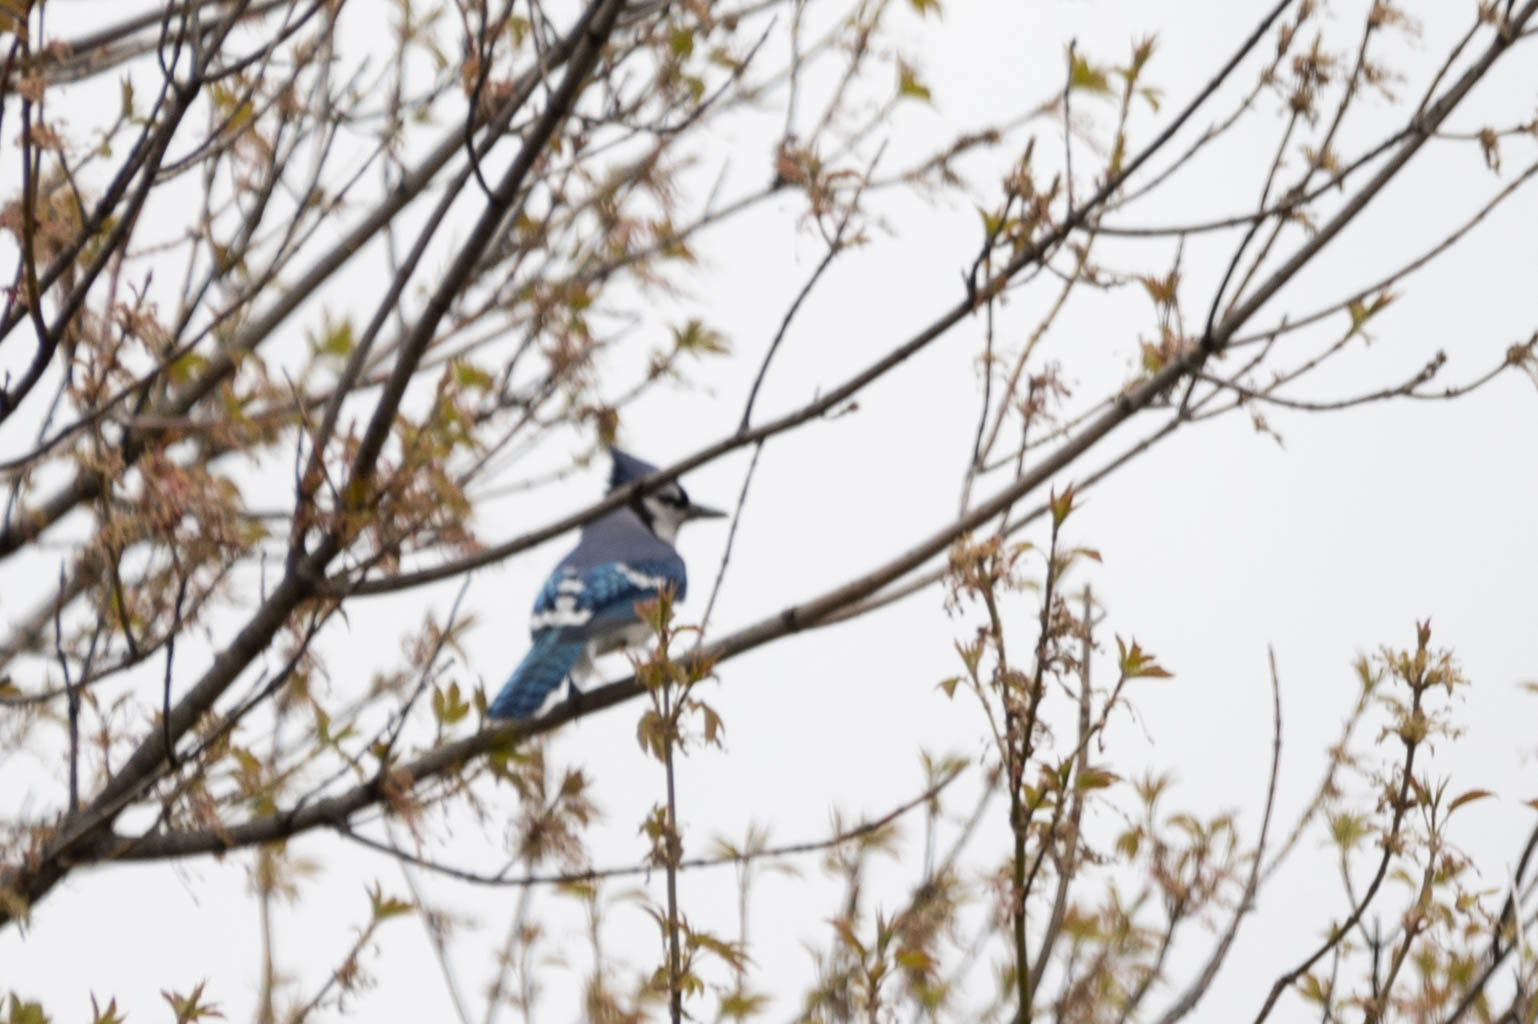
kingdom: Animalia
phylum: Chordata
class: Aves
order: Passeriformes
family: Corvidae
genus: Cyanocitta
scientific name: Cyanocitta cristata
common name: Blue jay
